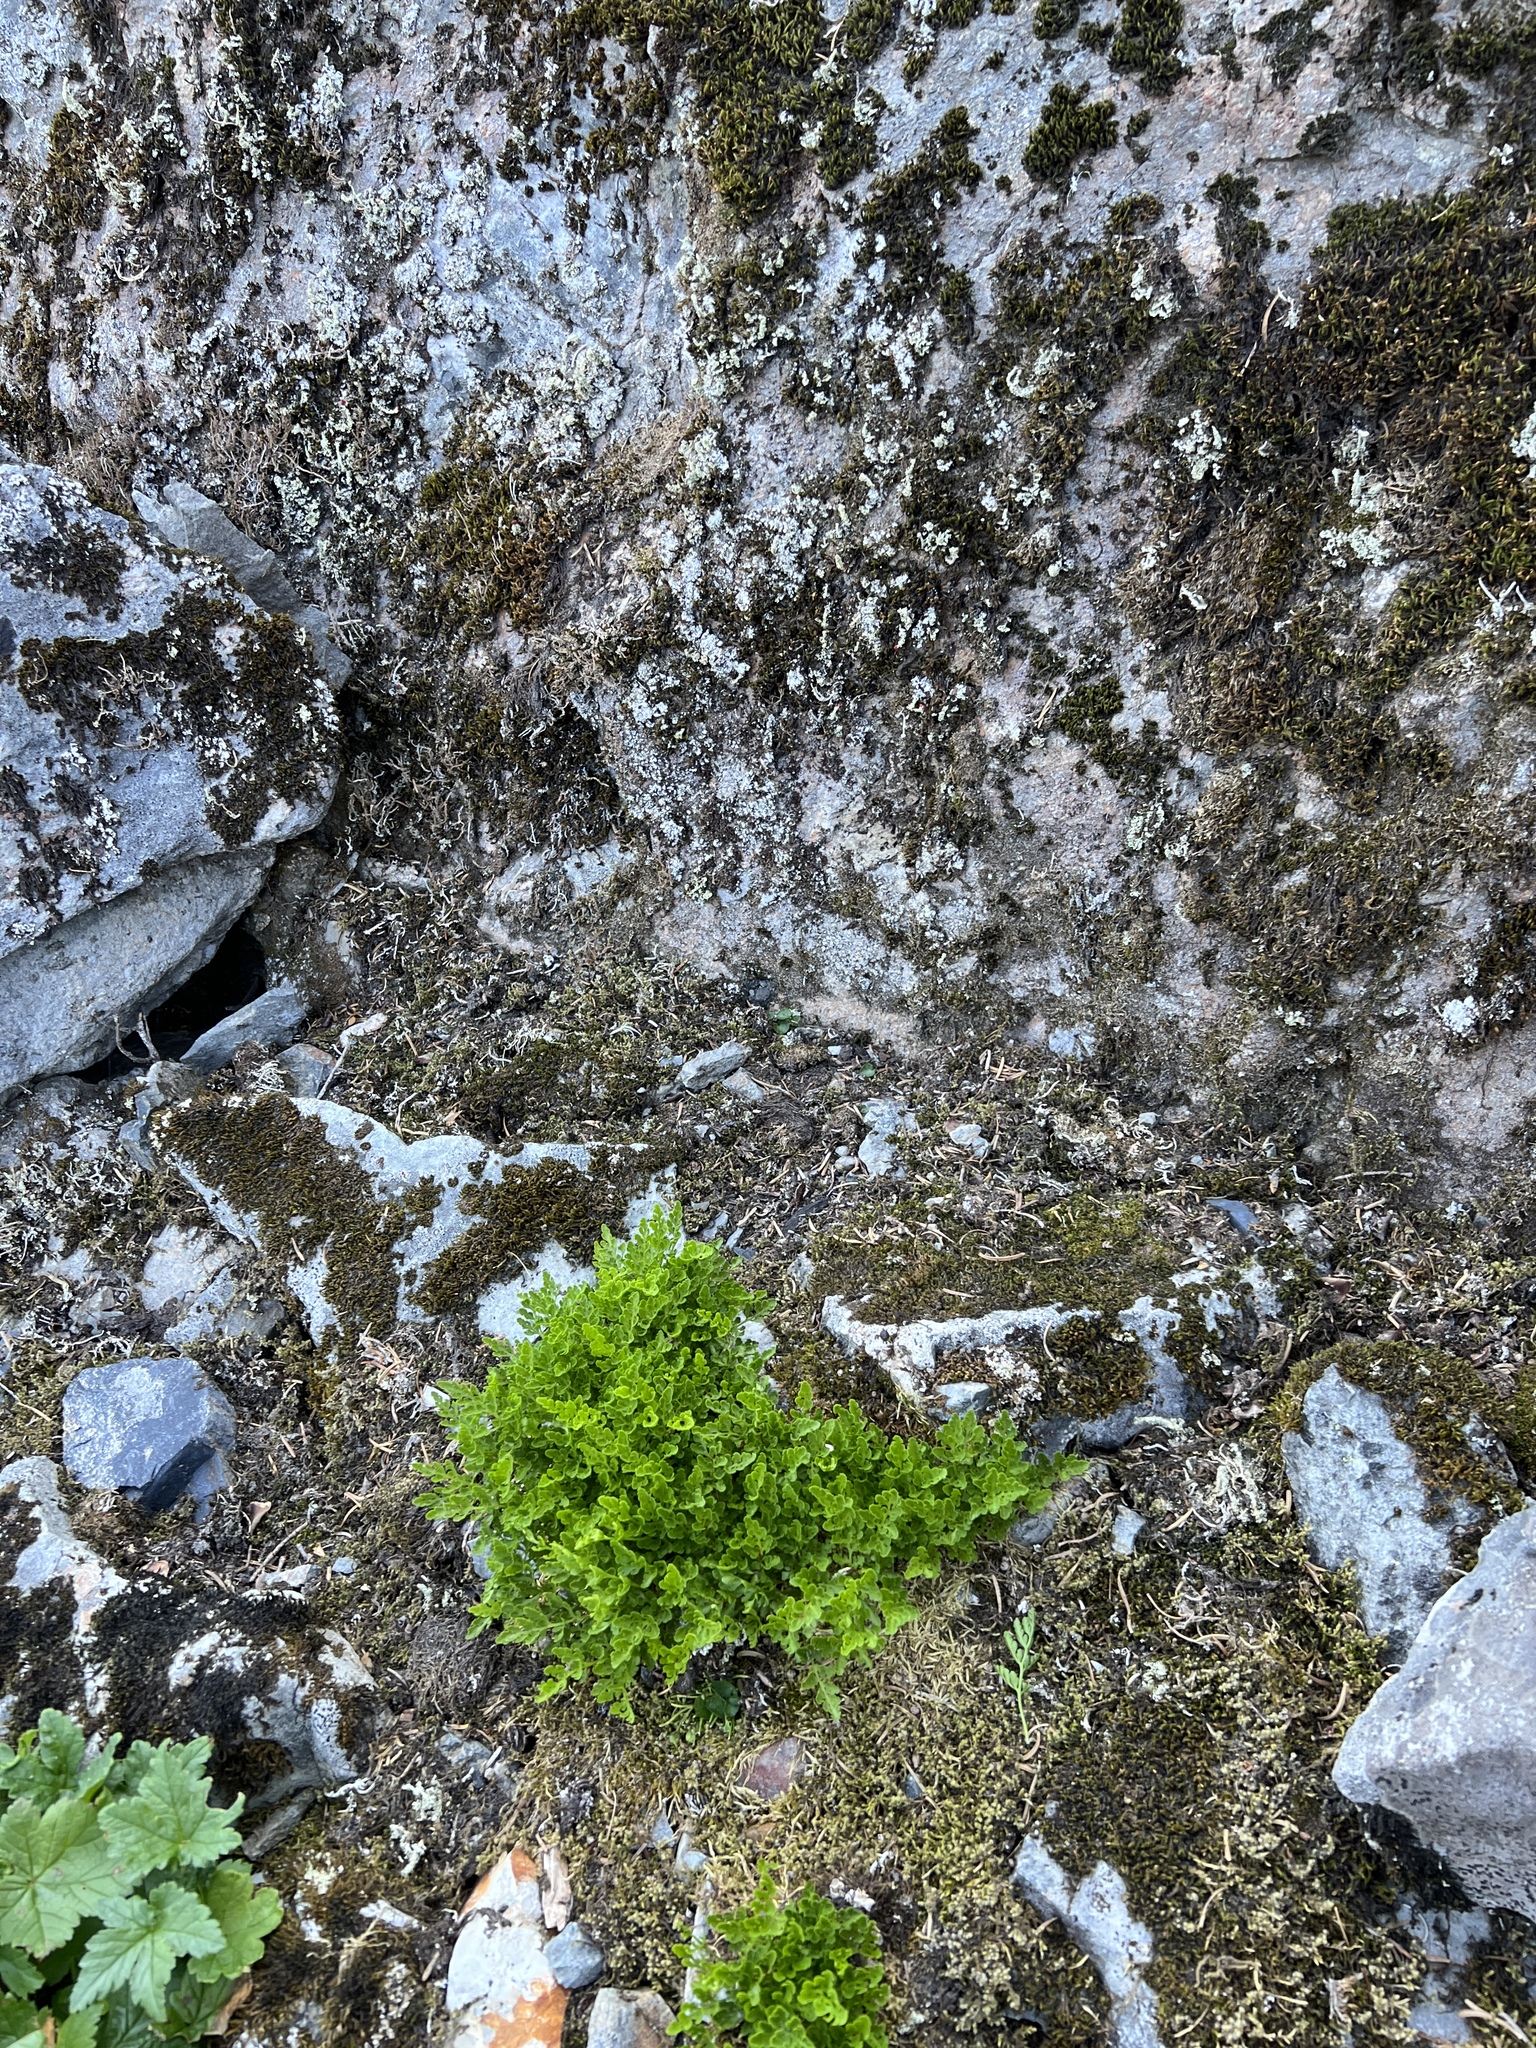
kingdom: Plantae
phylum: Tracheophyta
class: Polypodiopsida
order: Polypodiales
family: Pteridaceae
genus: Cryptogramma
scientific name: Cryptogramma cascadensis
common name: Cascade parsley fern
